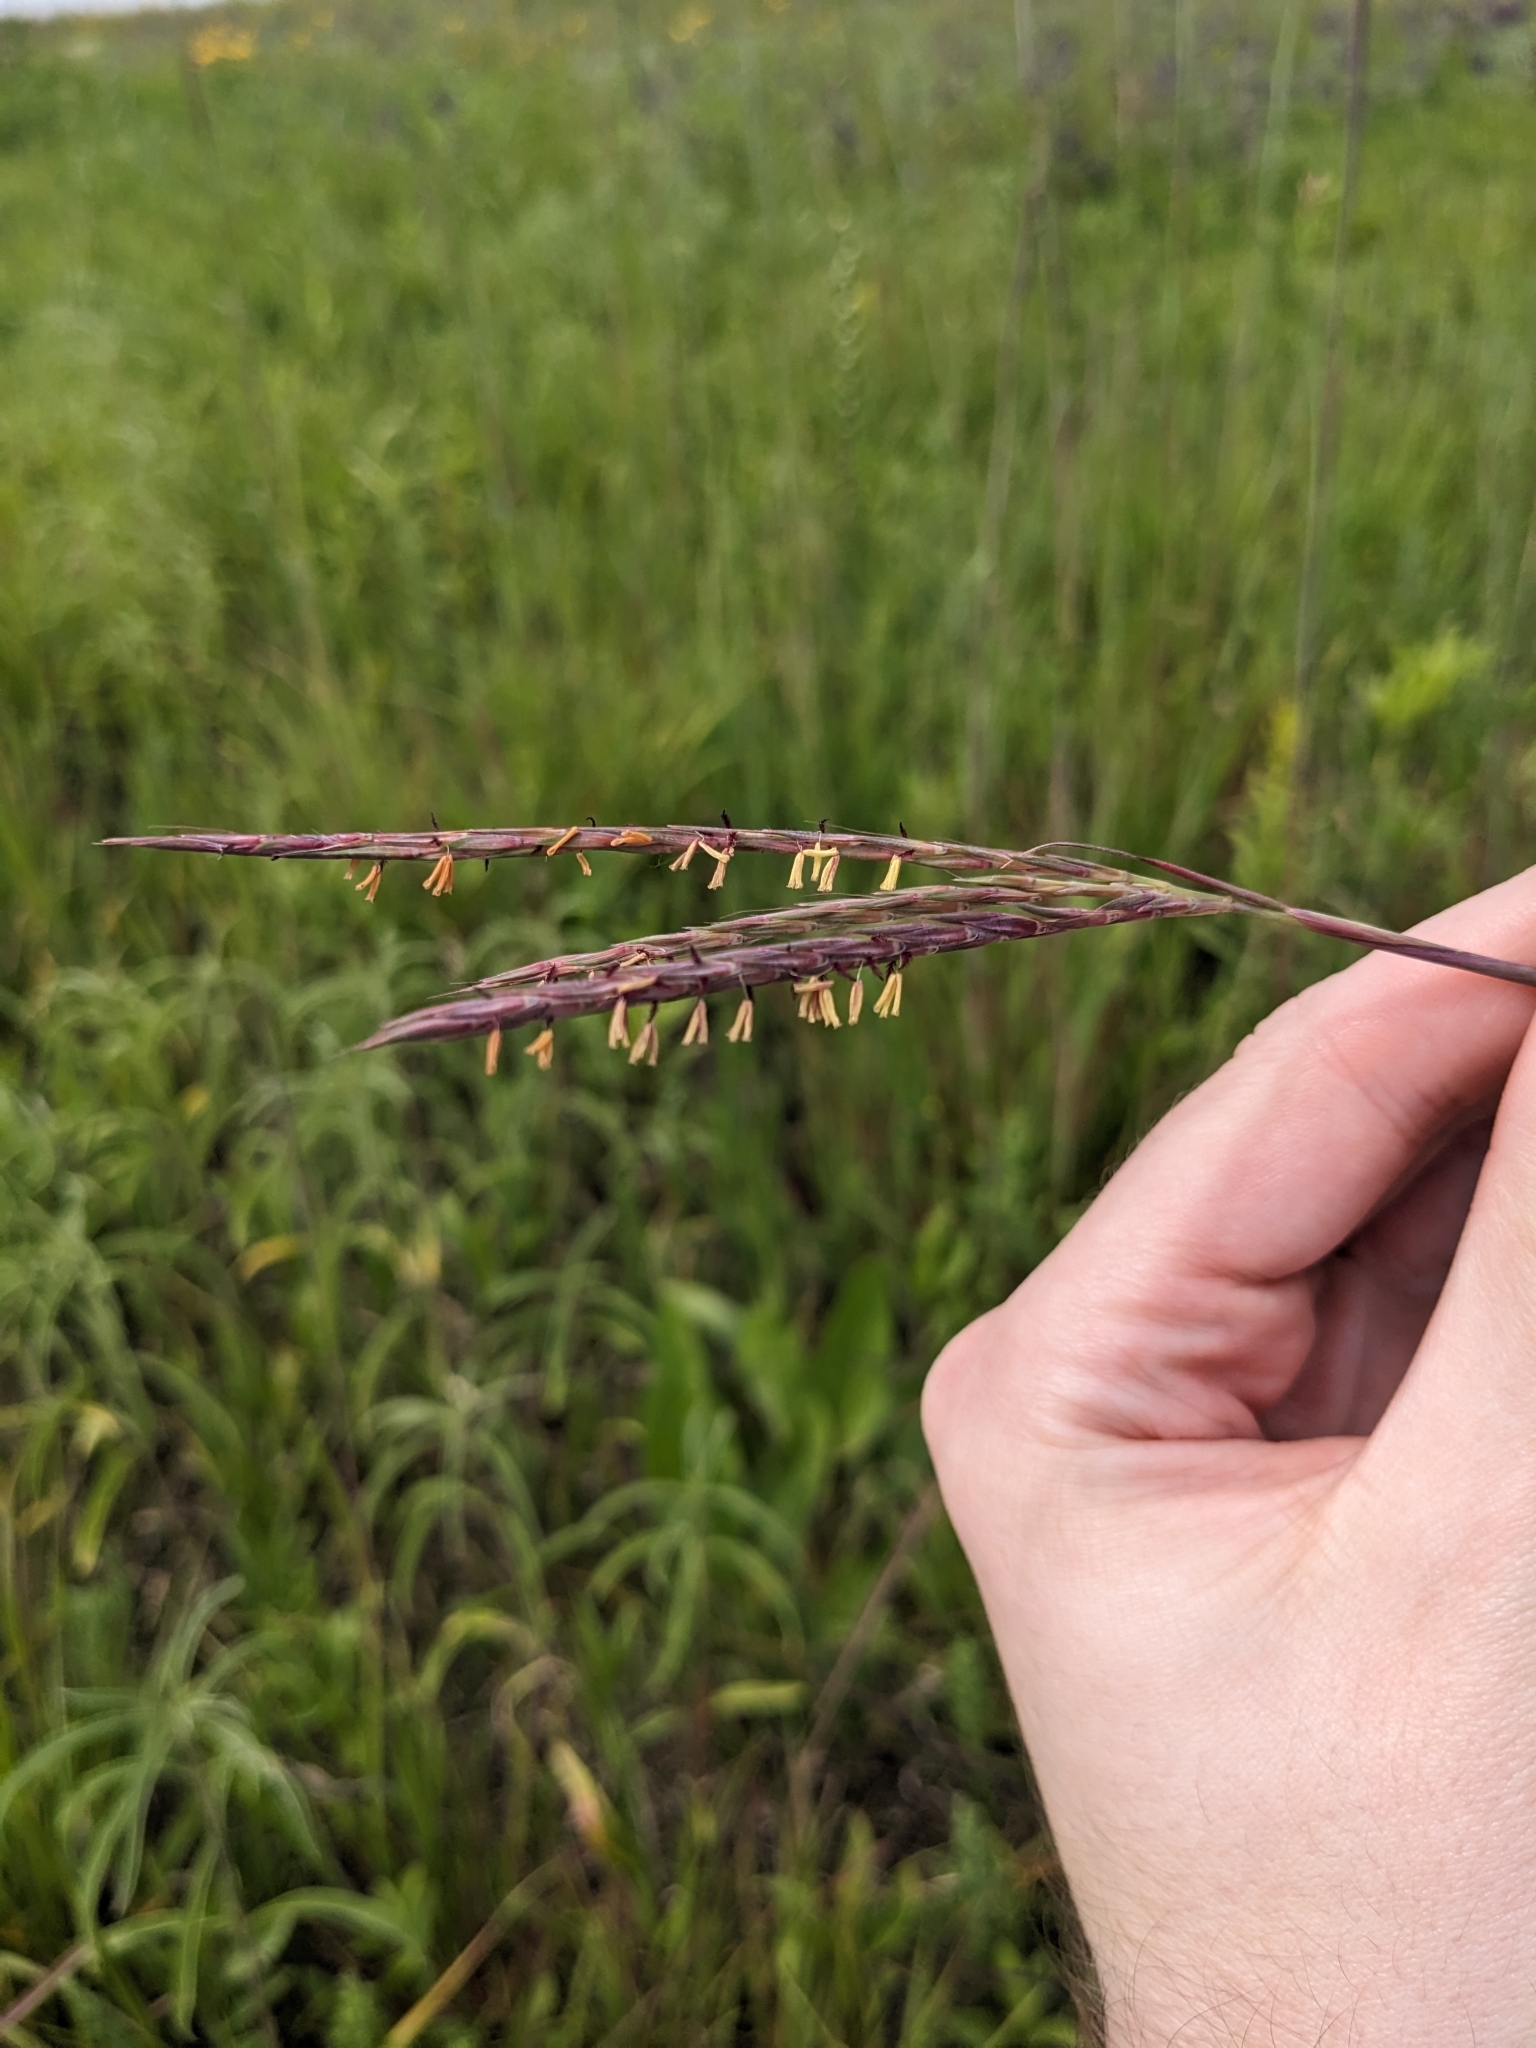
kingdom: Plantae
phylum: Tracheophyta
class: Liliopsida
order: Poales
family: Poaceae
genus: Andropogon
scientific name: Andropogon gerardi
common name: Big bluestem
